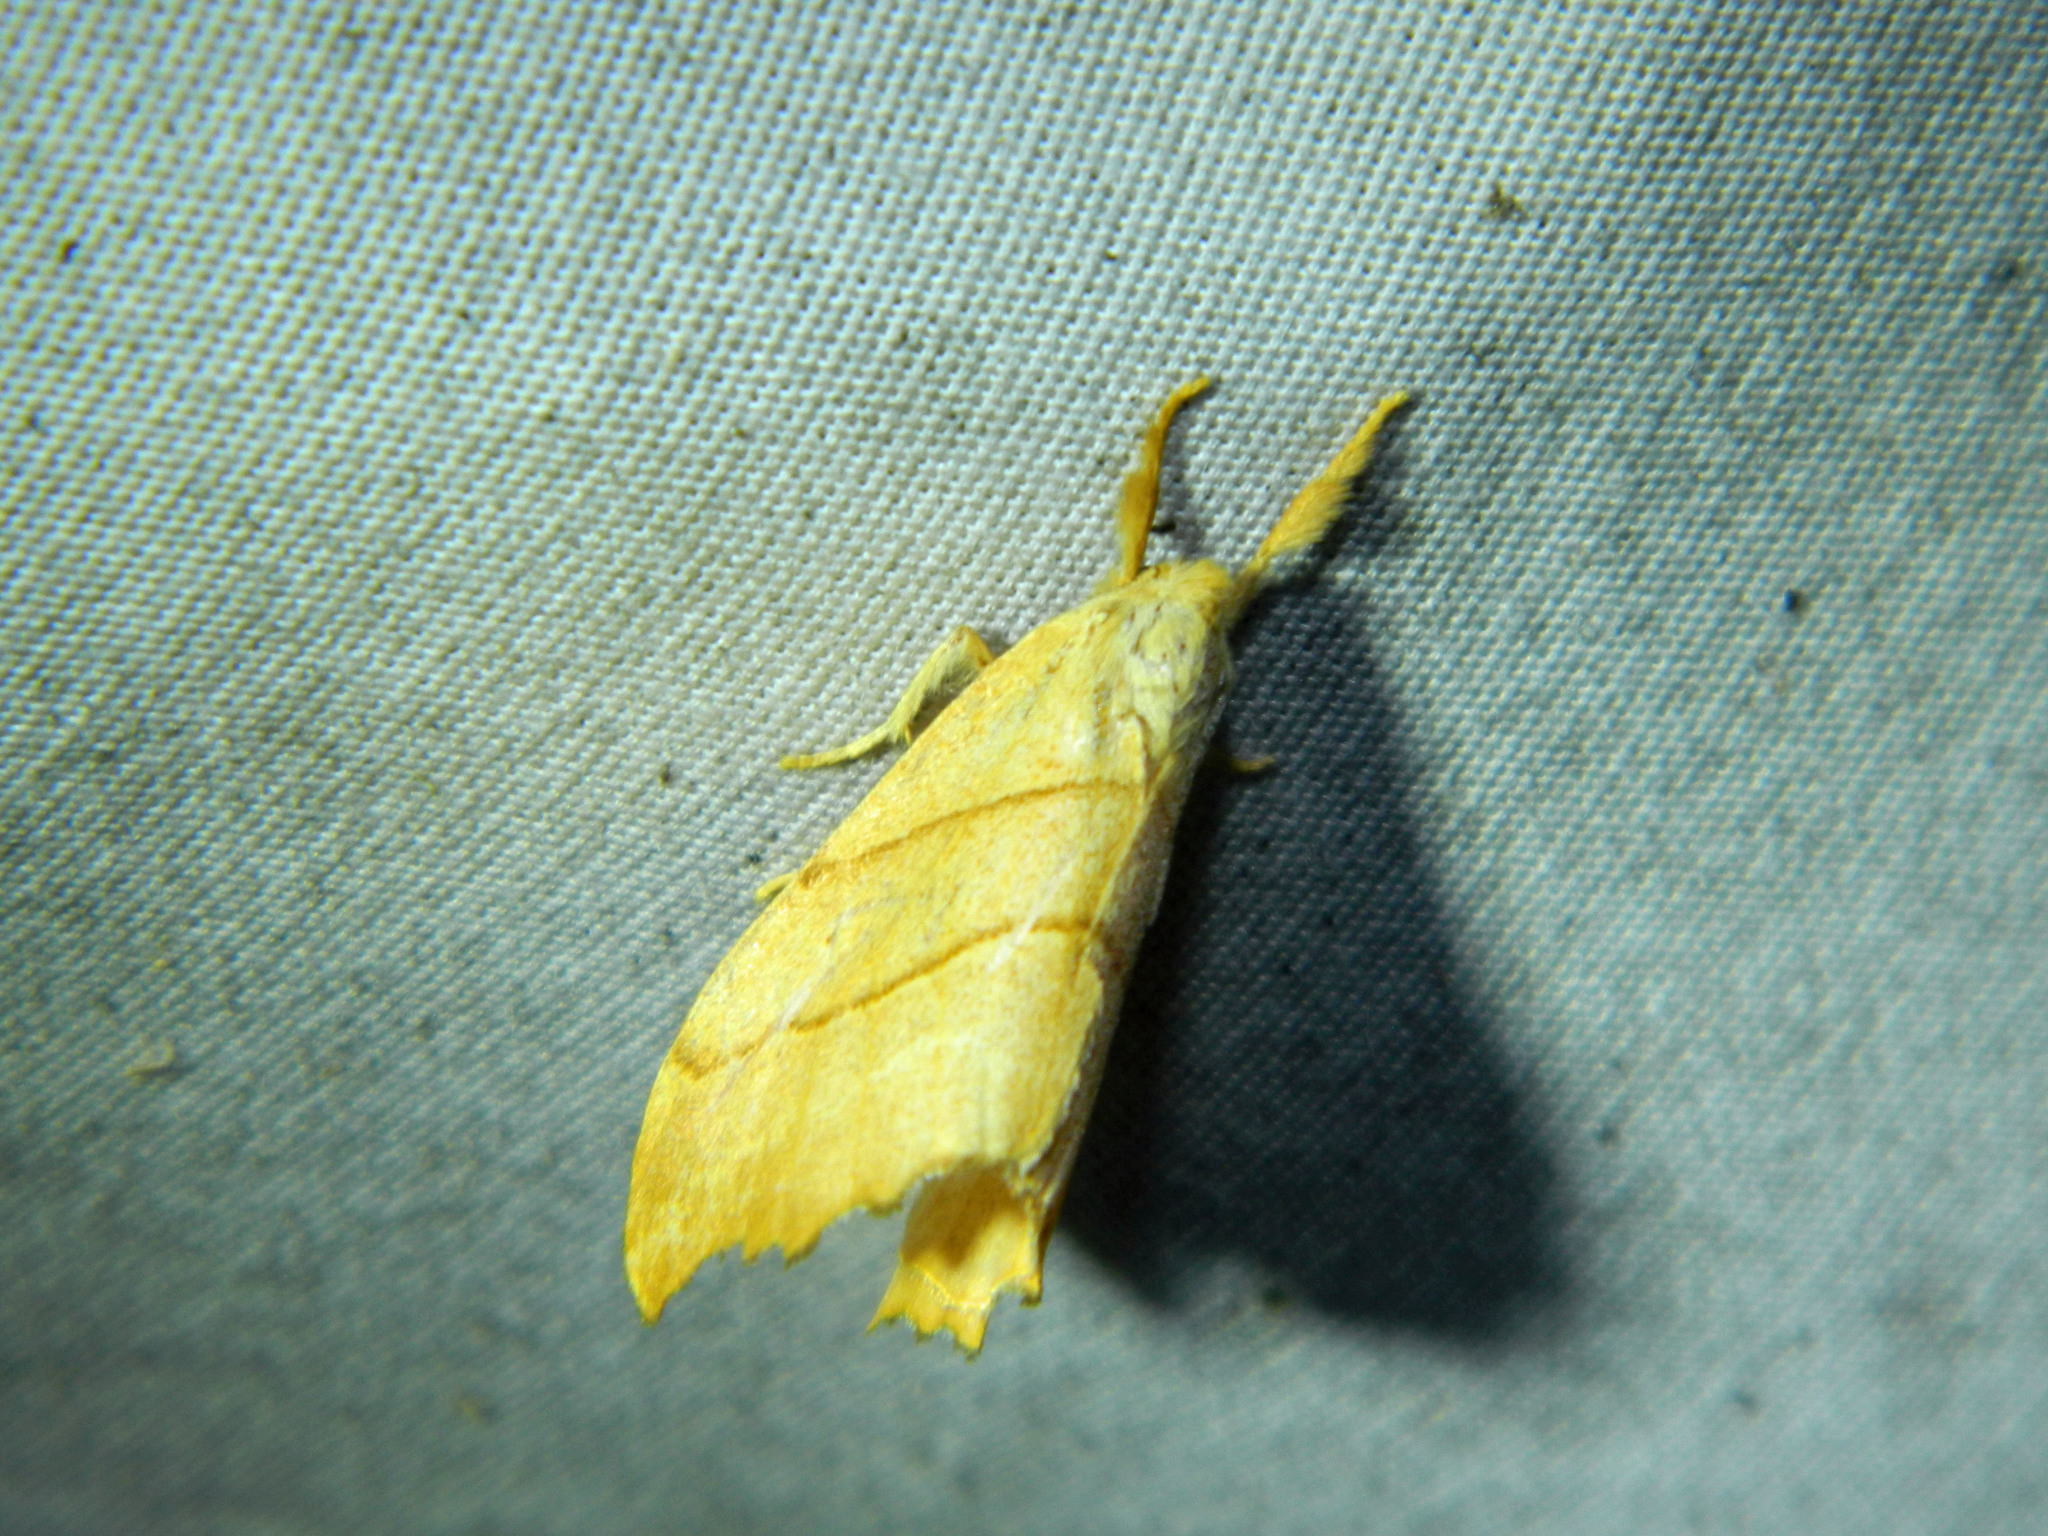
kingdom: Animalia
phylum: Arthropoda
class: Insecta
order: Lepidoptera
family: Drepanidae
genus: Falcaria
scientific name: Falcaria bilineata
